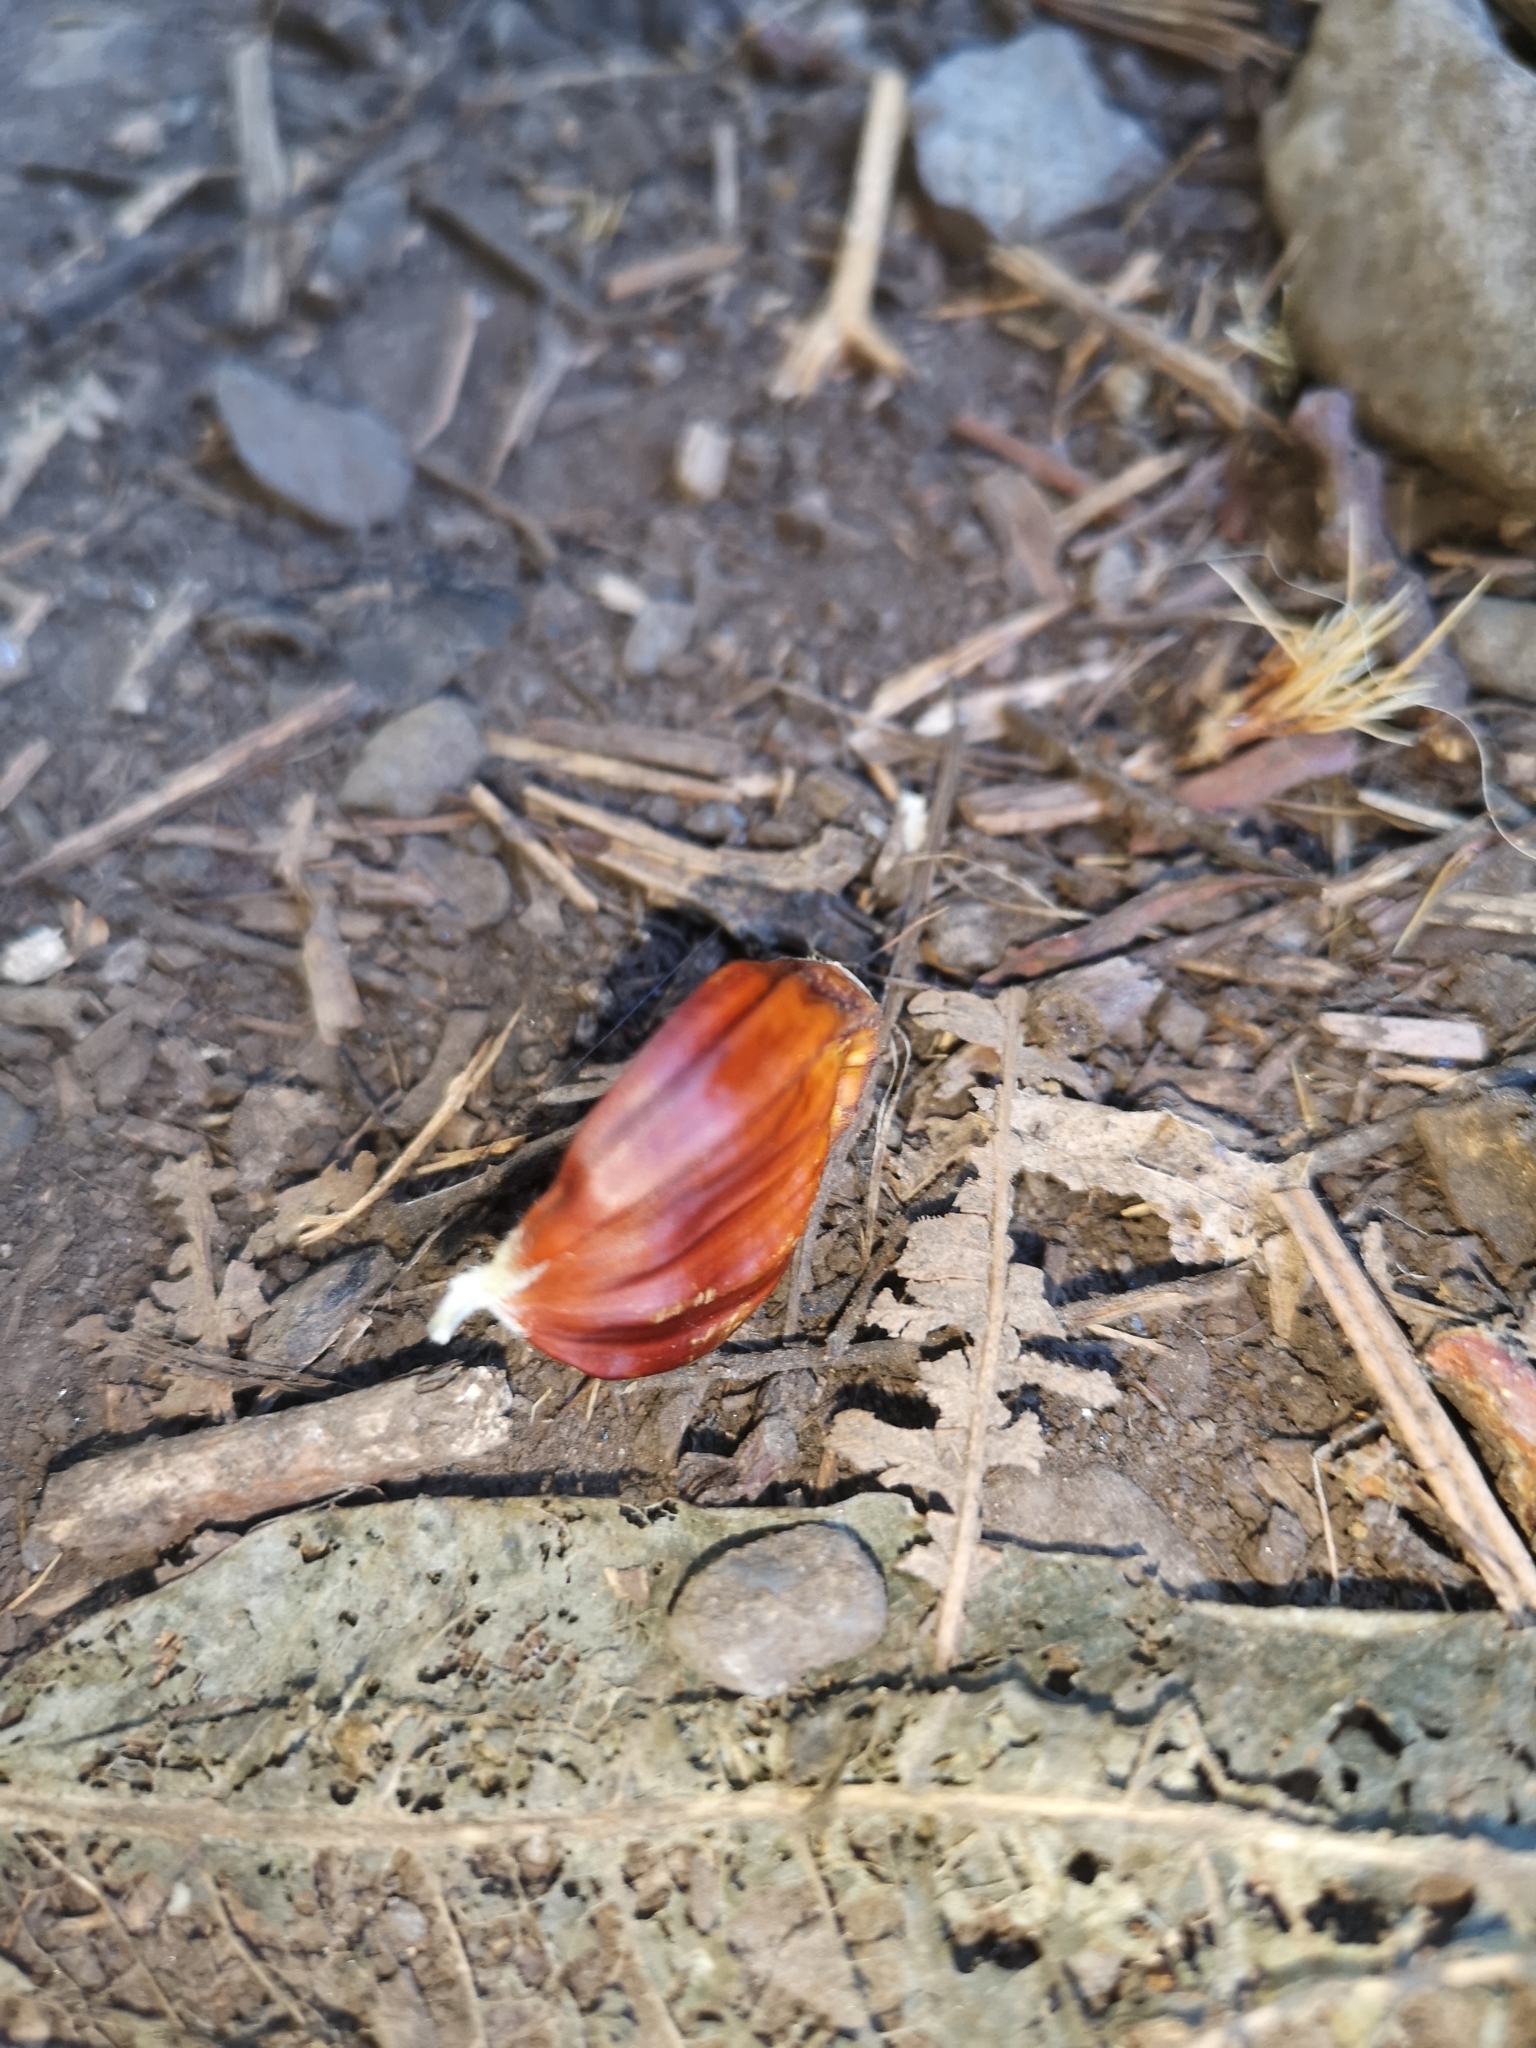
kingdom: Plantae
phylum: Tracheophyta
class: Magnoliopsida
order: Fagales
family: Fagaceae
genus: Castanea
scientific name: Castanea sativa
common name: Sweet chestnut
